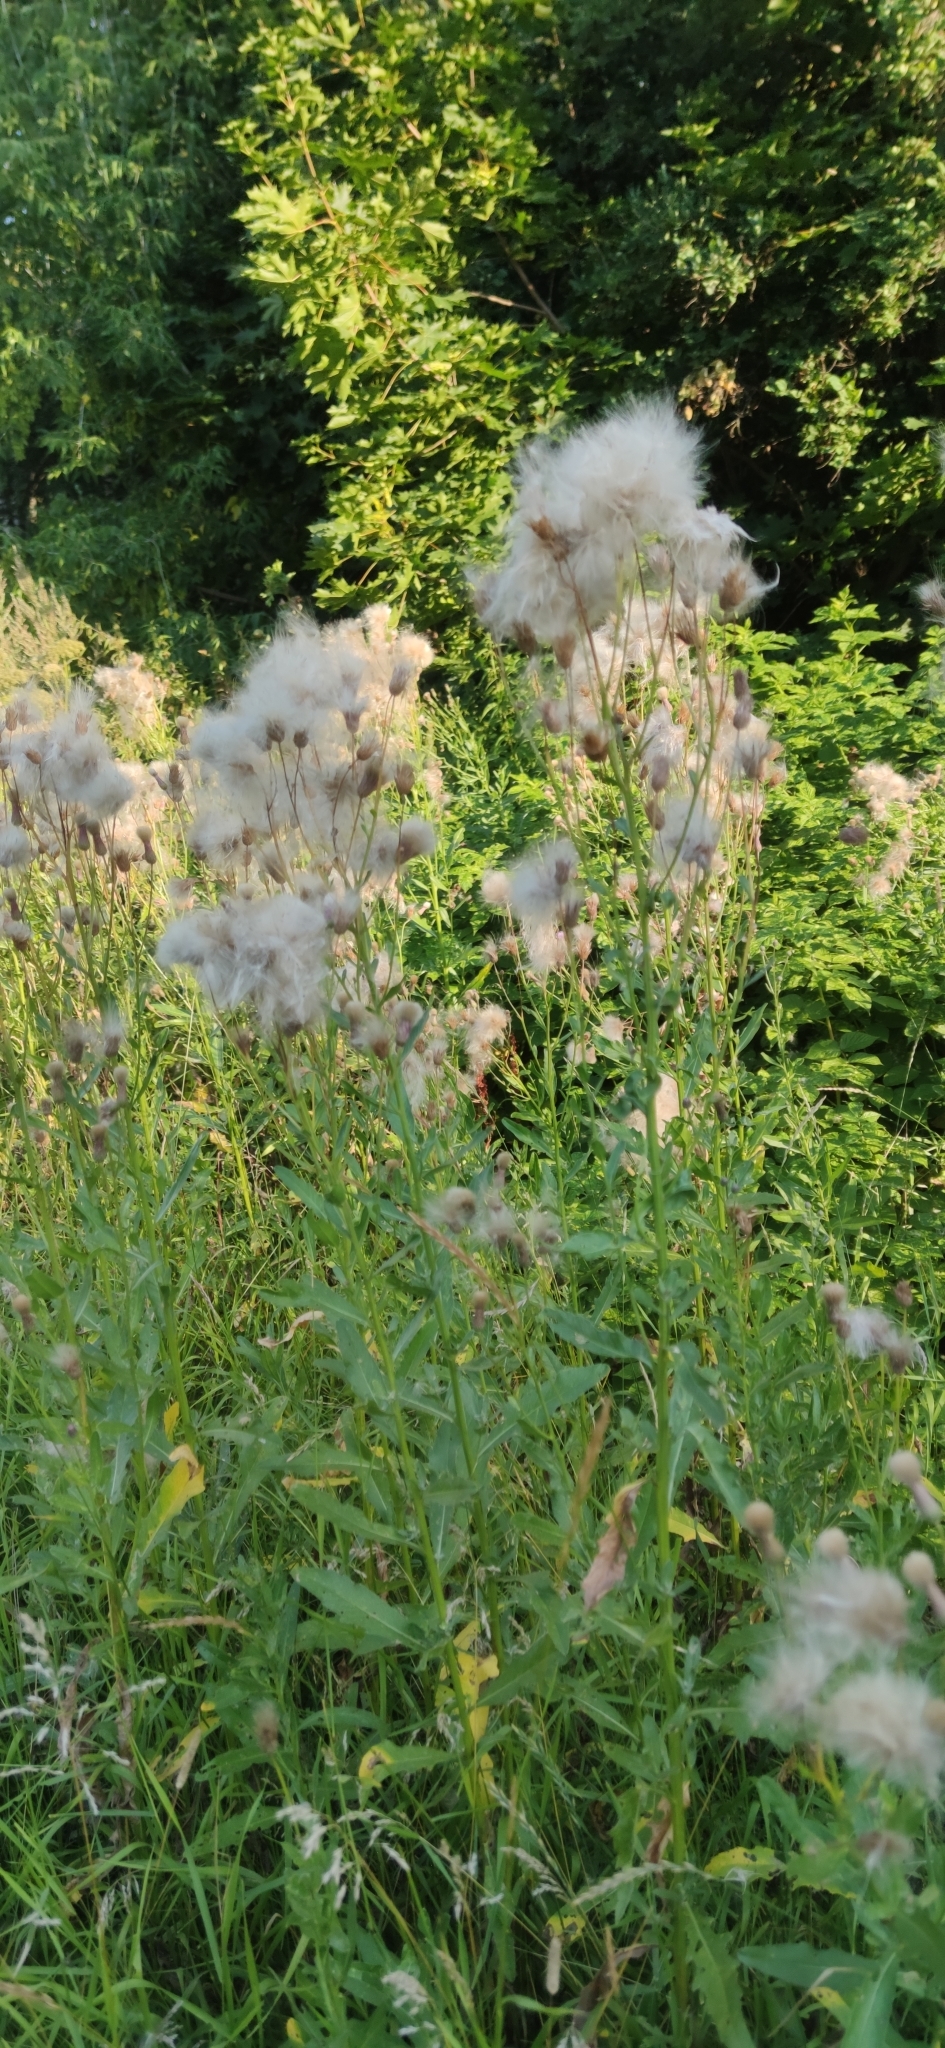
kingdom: Plantae
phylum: Tracheophyta
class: Magnoliopsida
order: Asterales
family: Asteraceae
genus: Cirsium
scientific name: Cirsium arvense
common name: Creeping thistle
